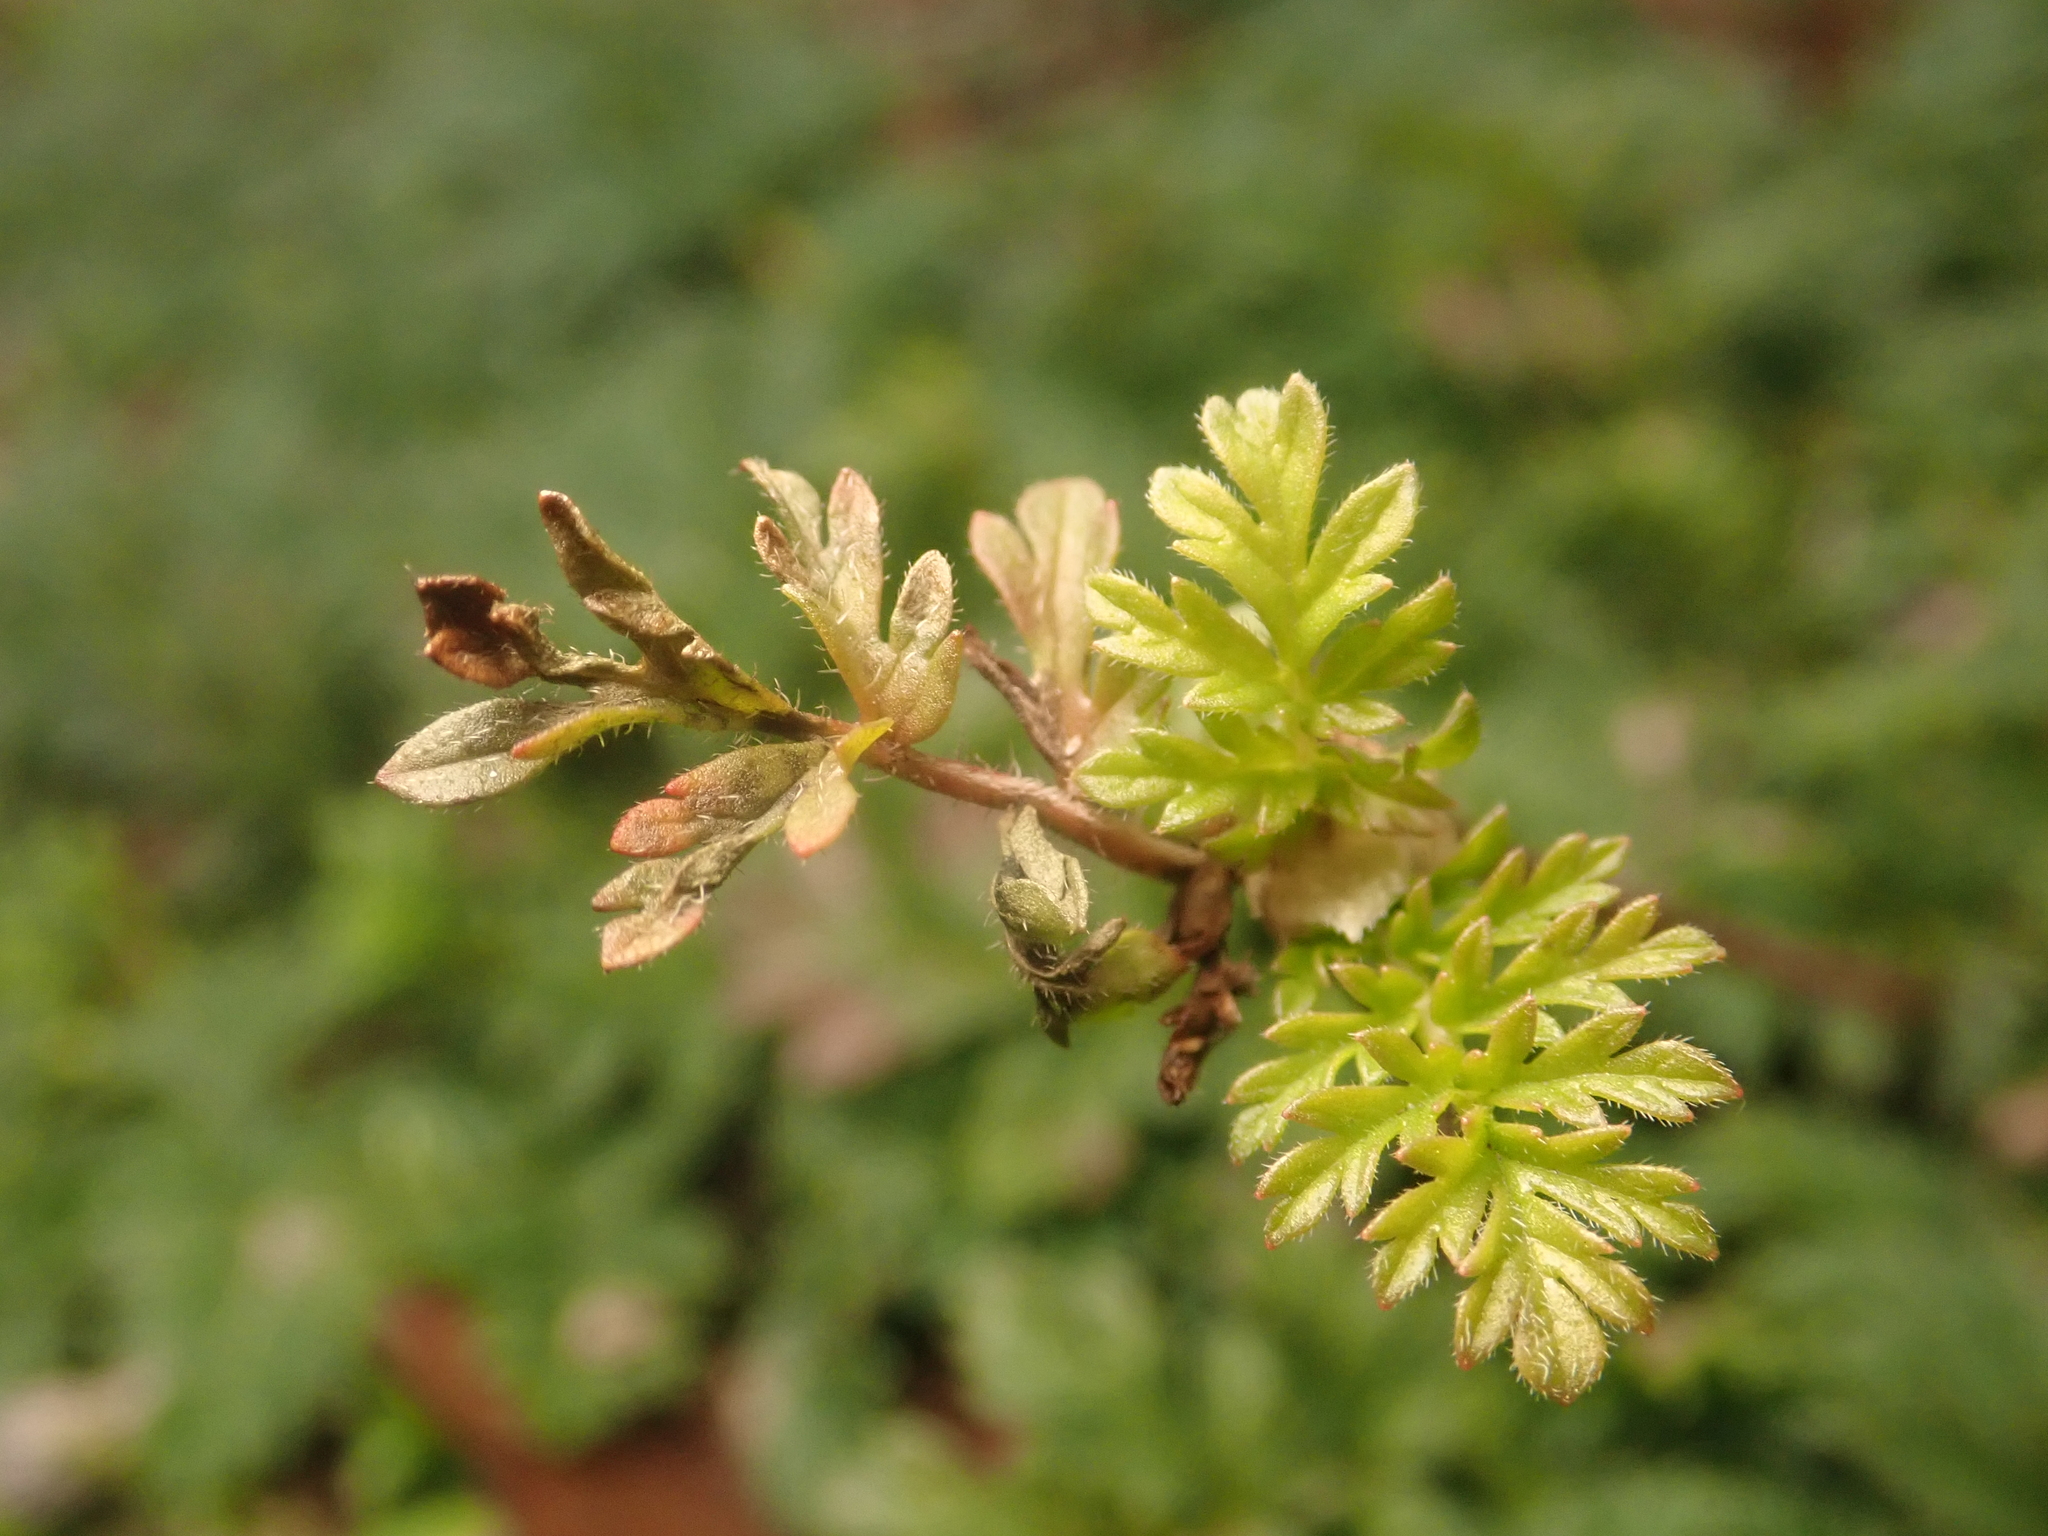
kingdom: Plantae
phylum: Tracheophyta
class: Magnoliopsida
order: Geraniales
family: Geraniaceae
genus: Erodium
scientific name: Erodium cicutarium
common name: Common stork's-bill
